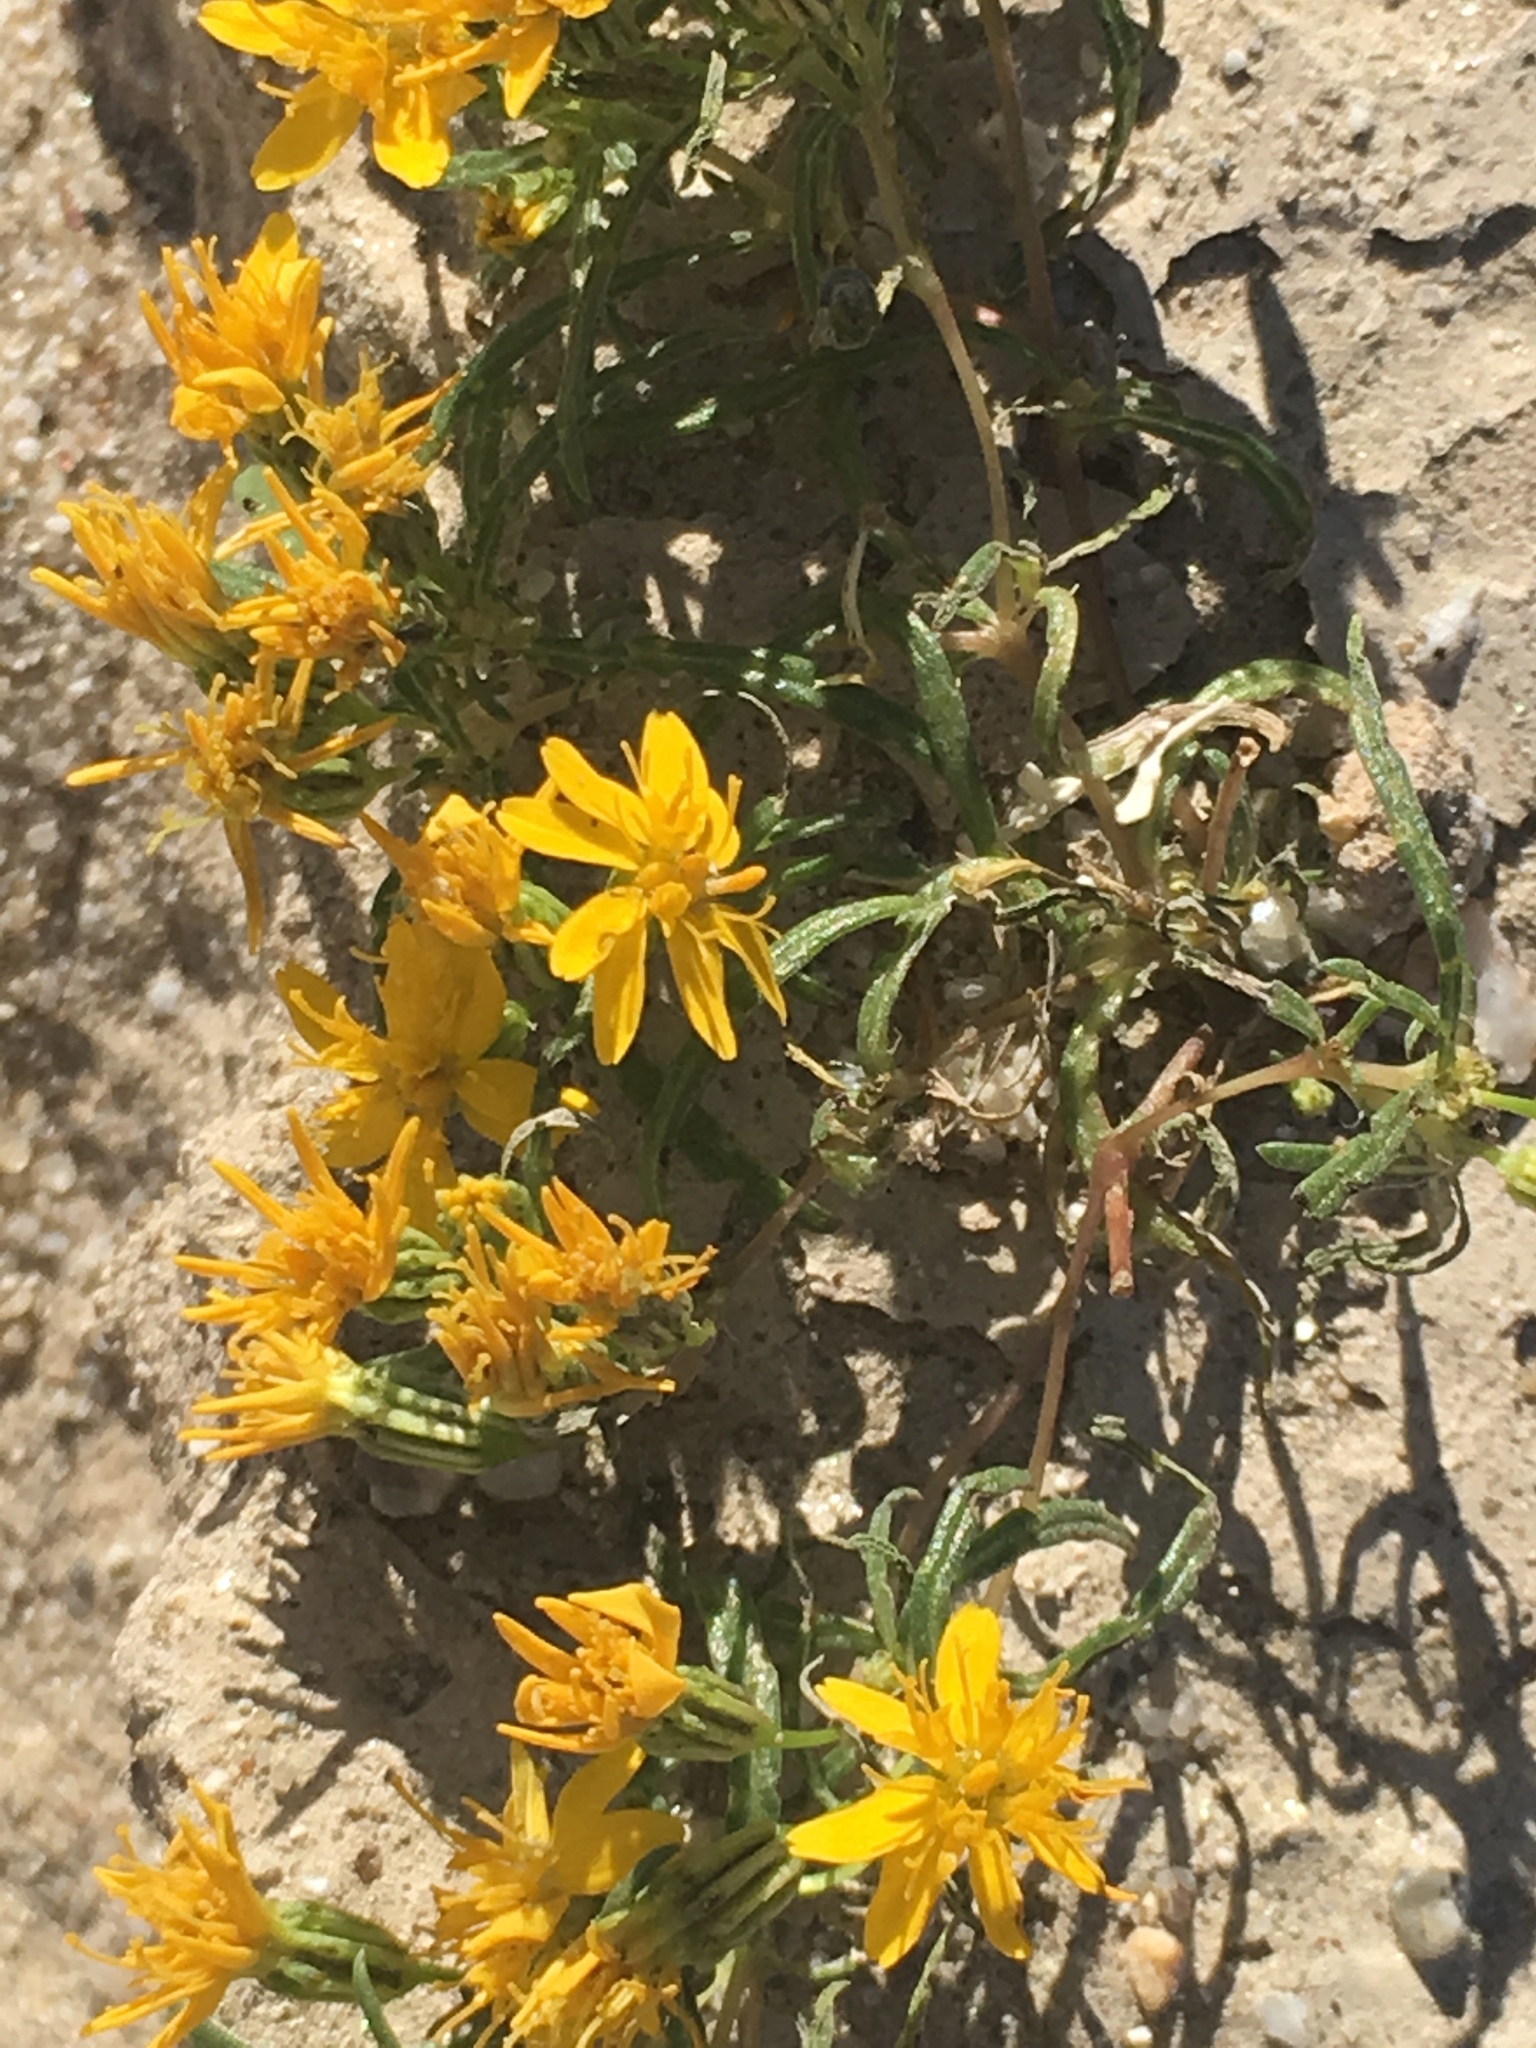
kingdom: Plantae
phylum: Tracheophyta
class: Magnoliopsida
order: Asterales
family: Asteraceae
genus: Pectis
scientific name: Pectis papposa
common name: Many-bristle chinchweed
